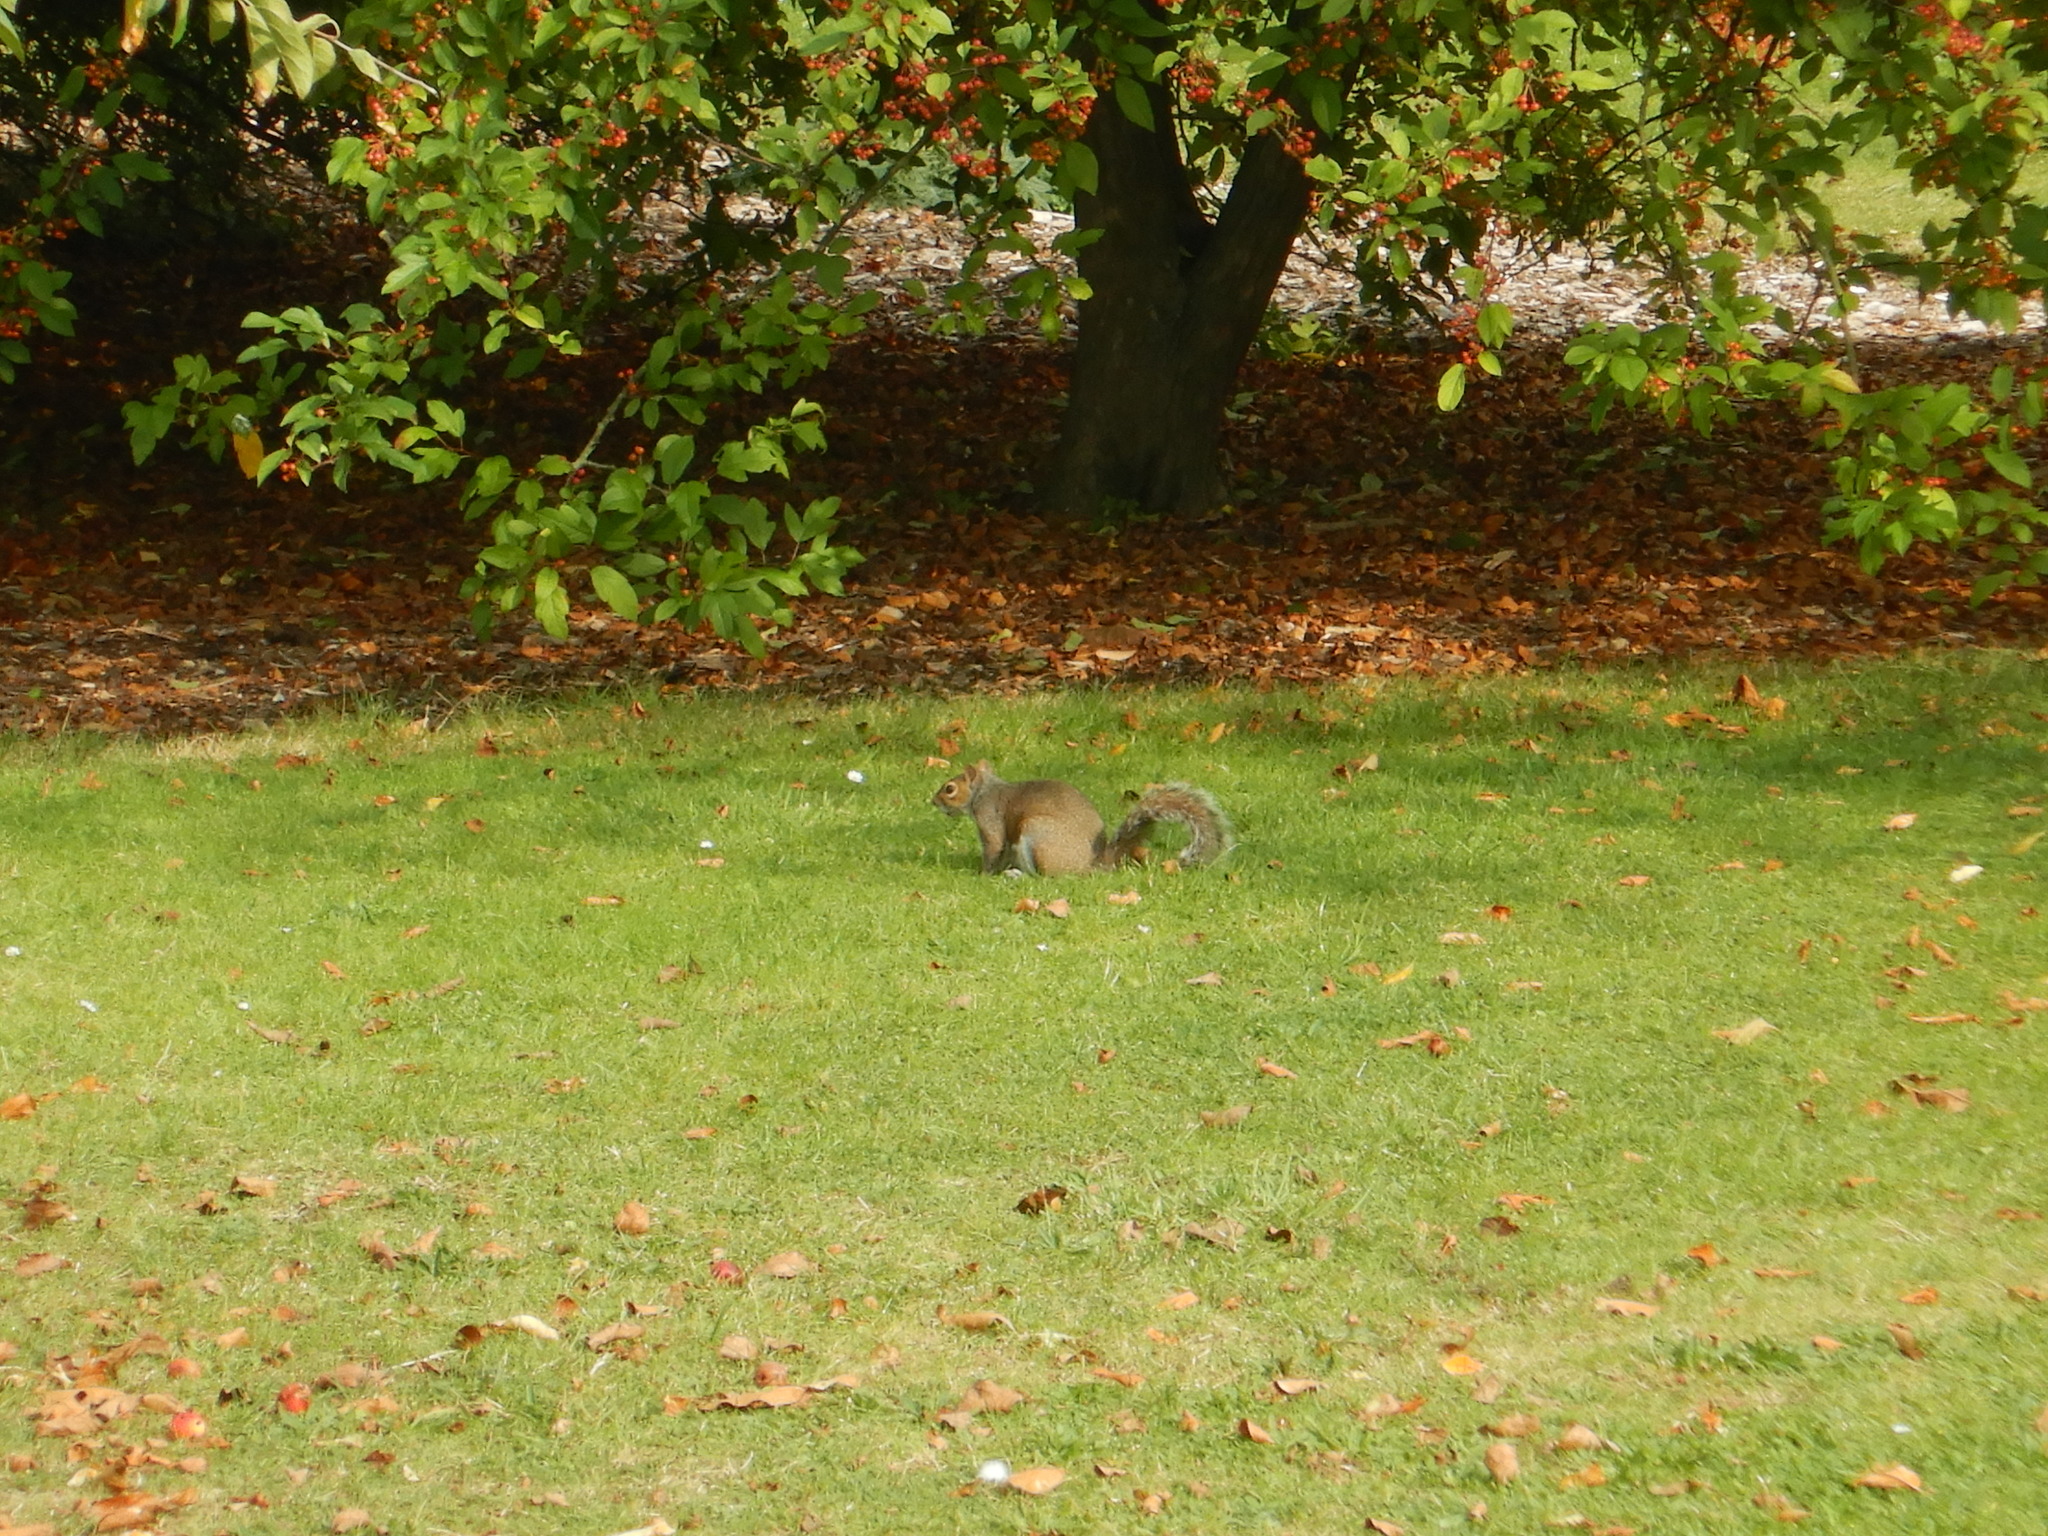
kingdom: Animalia
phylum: Chordata
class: Mammalia
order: Rodentia
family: Sciuridae
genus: Sciurus
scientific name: Sciurus carolinensis
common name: Eastern gray squirrel
